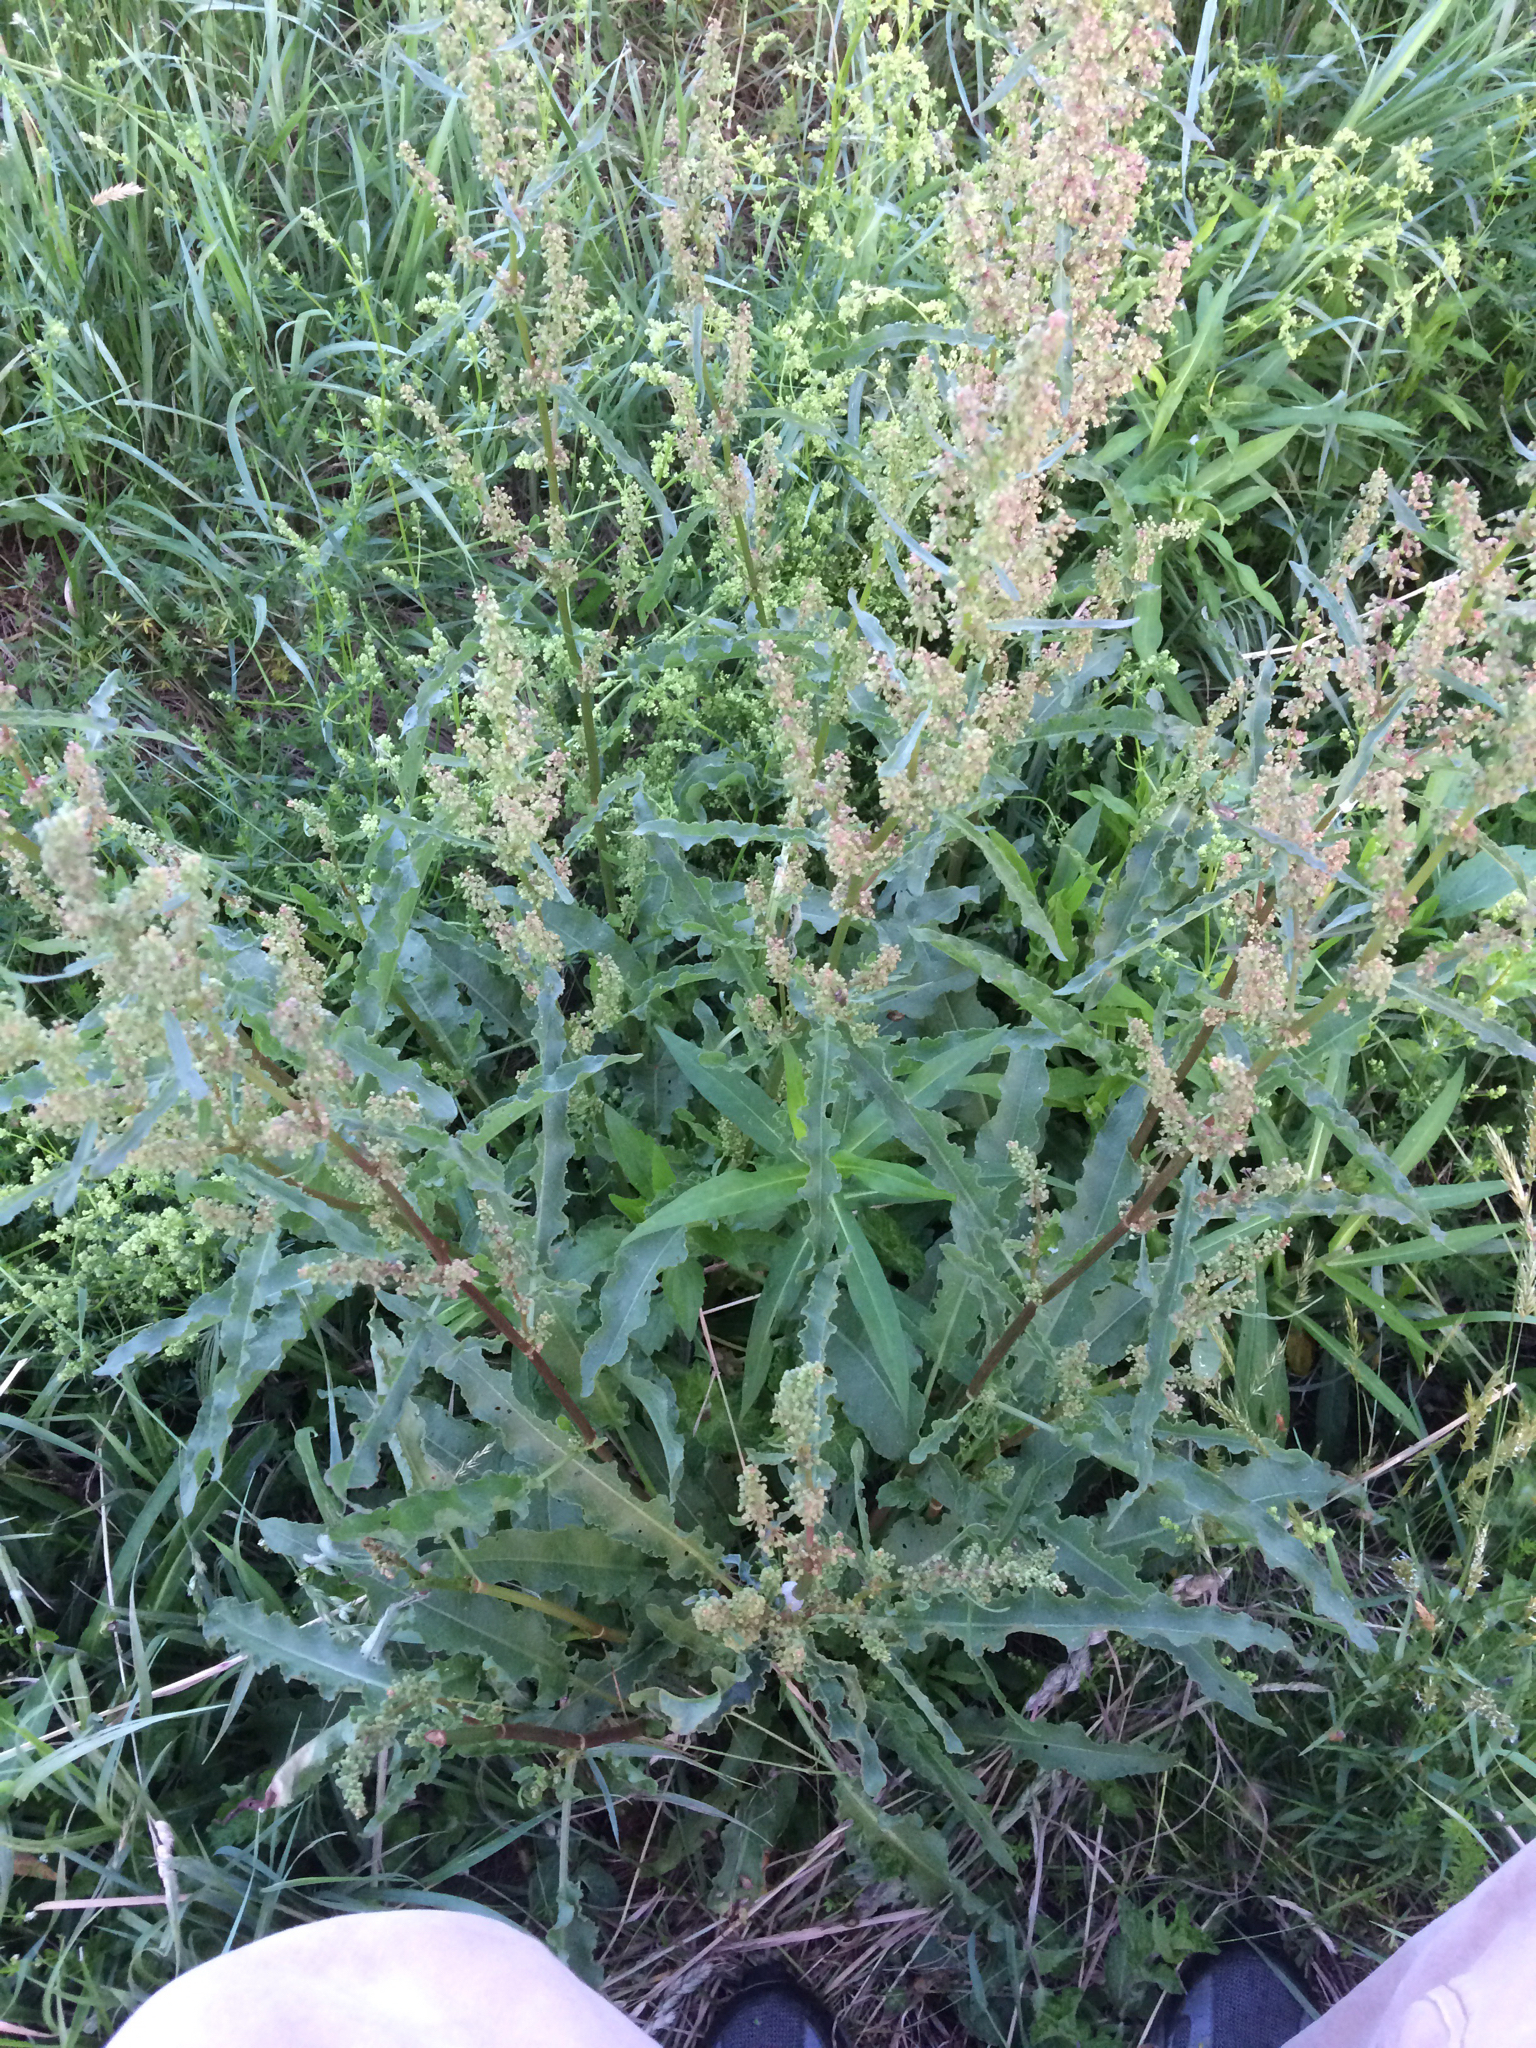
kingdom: Plantae
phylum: Tracheophyta
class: Magnoliopsida
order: Caryophyllales
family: Polygonaceae
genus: Rumex
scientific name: Rumex crispus
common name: Curled dock
